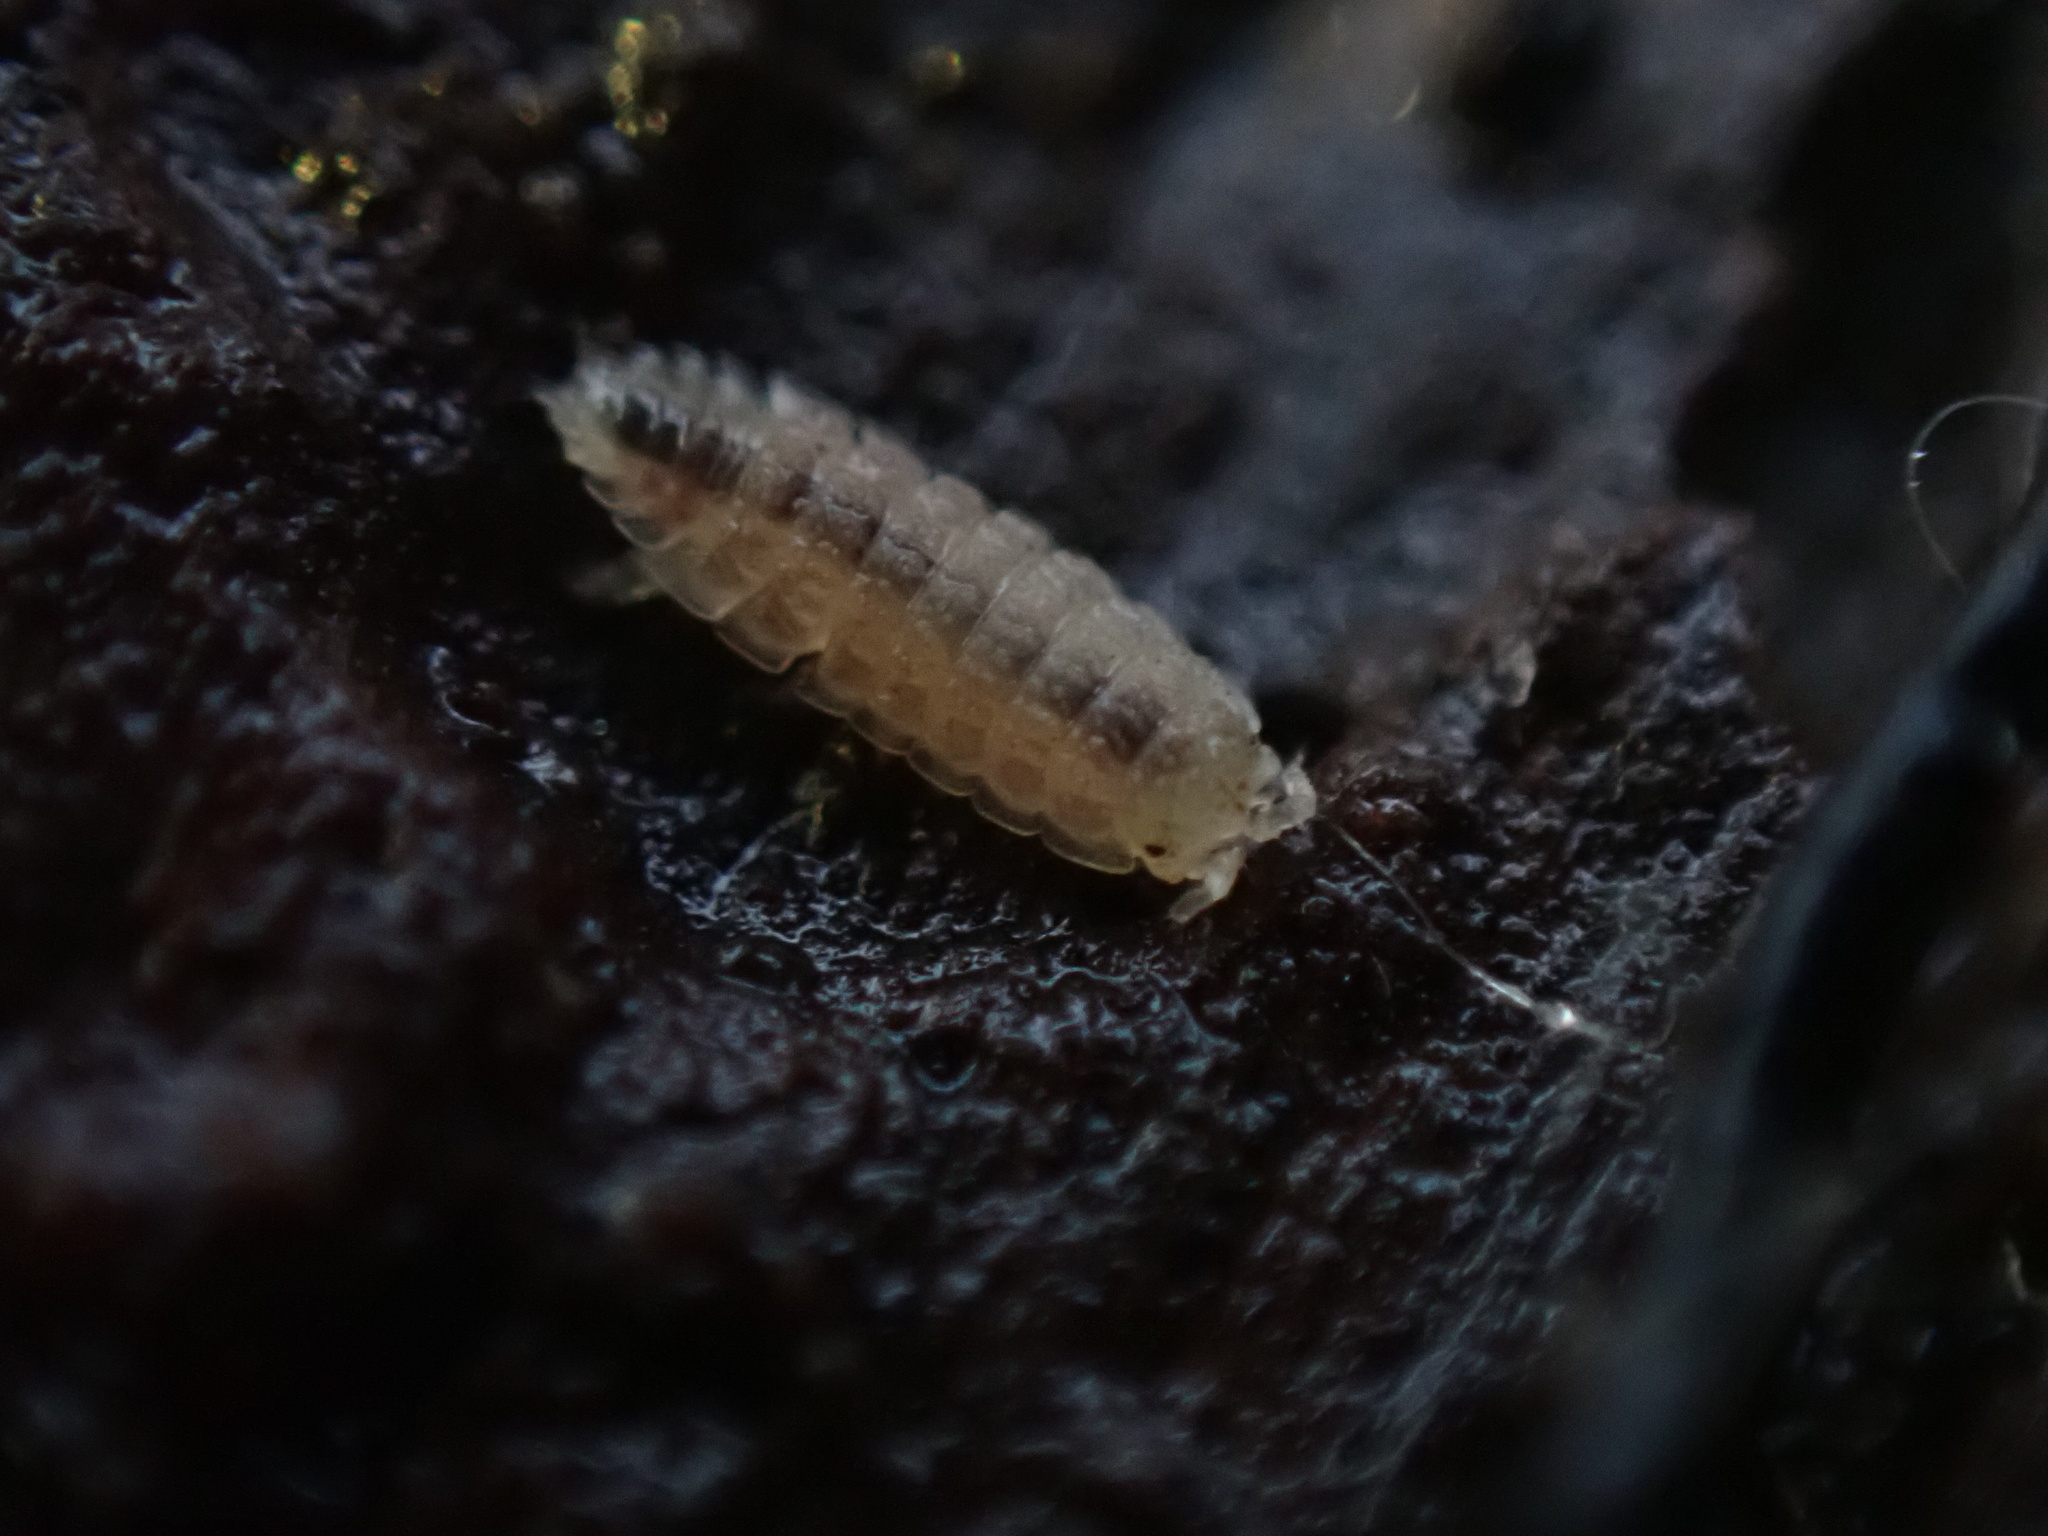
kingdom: Animalia
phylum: Arthropoda
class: Malacostraca
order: Isopoda
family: Trichoniscidae
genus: Haplophthalmus
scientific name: Haplophthalmus danicus
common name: Pillbug
